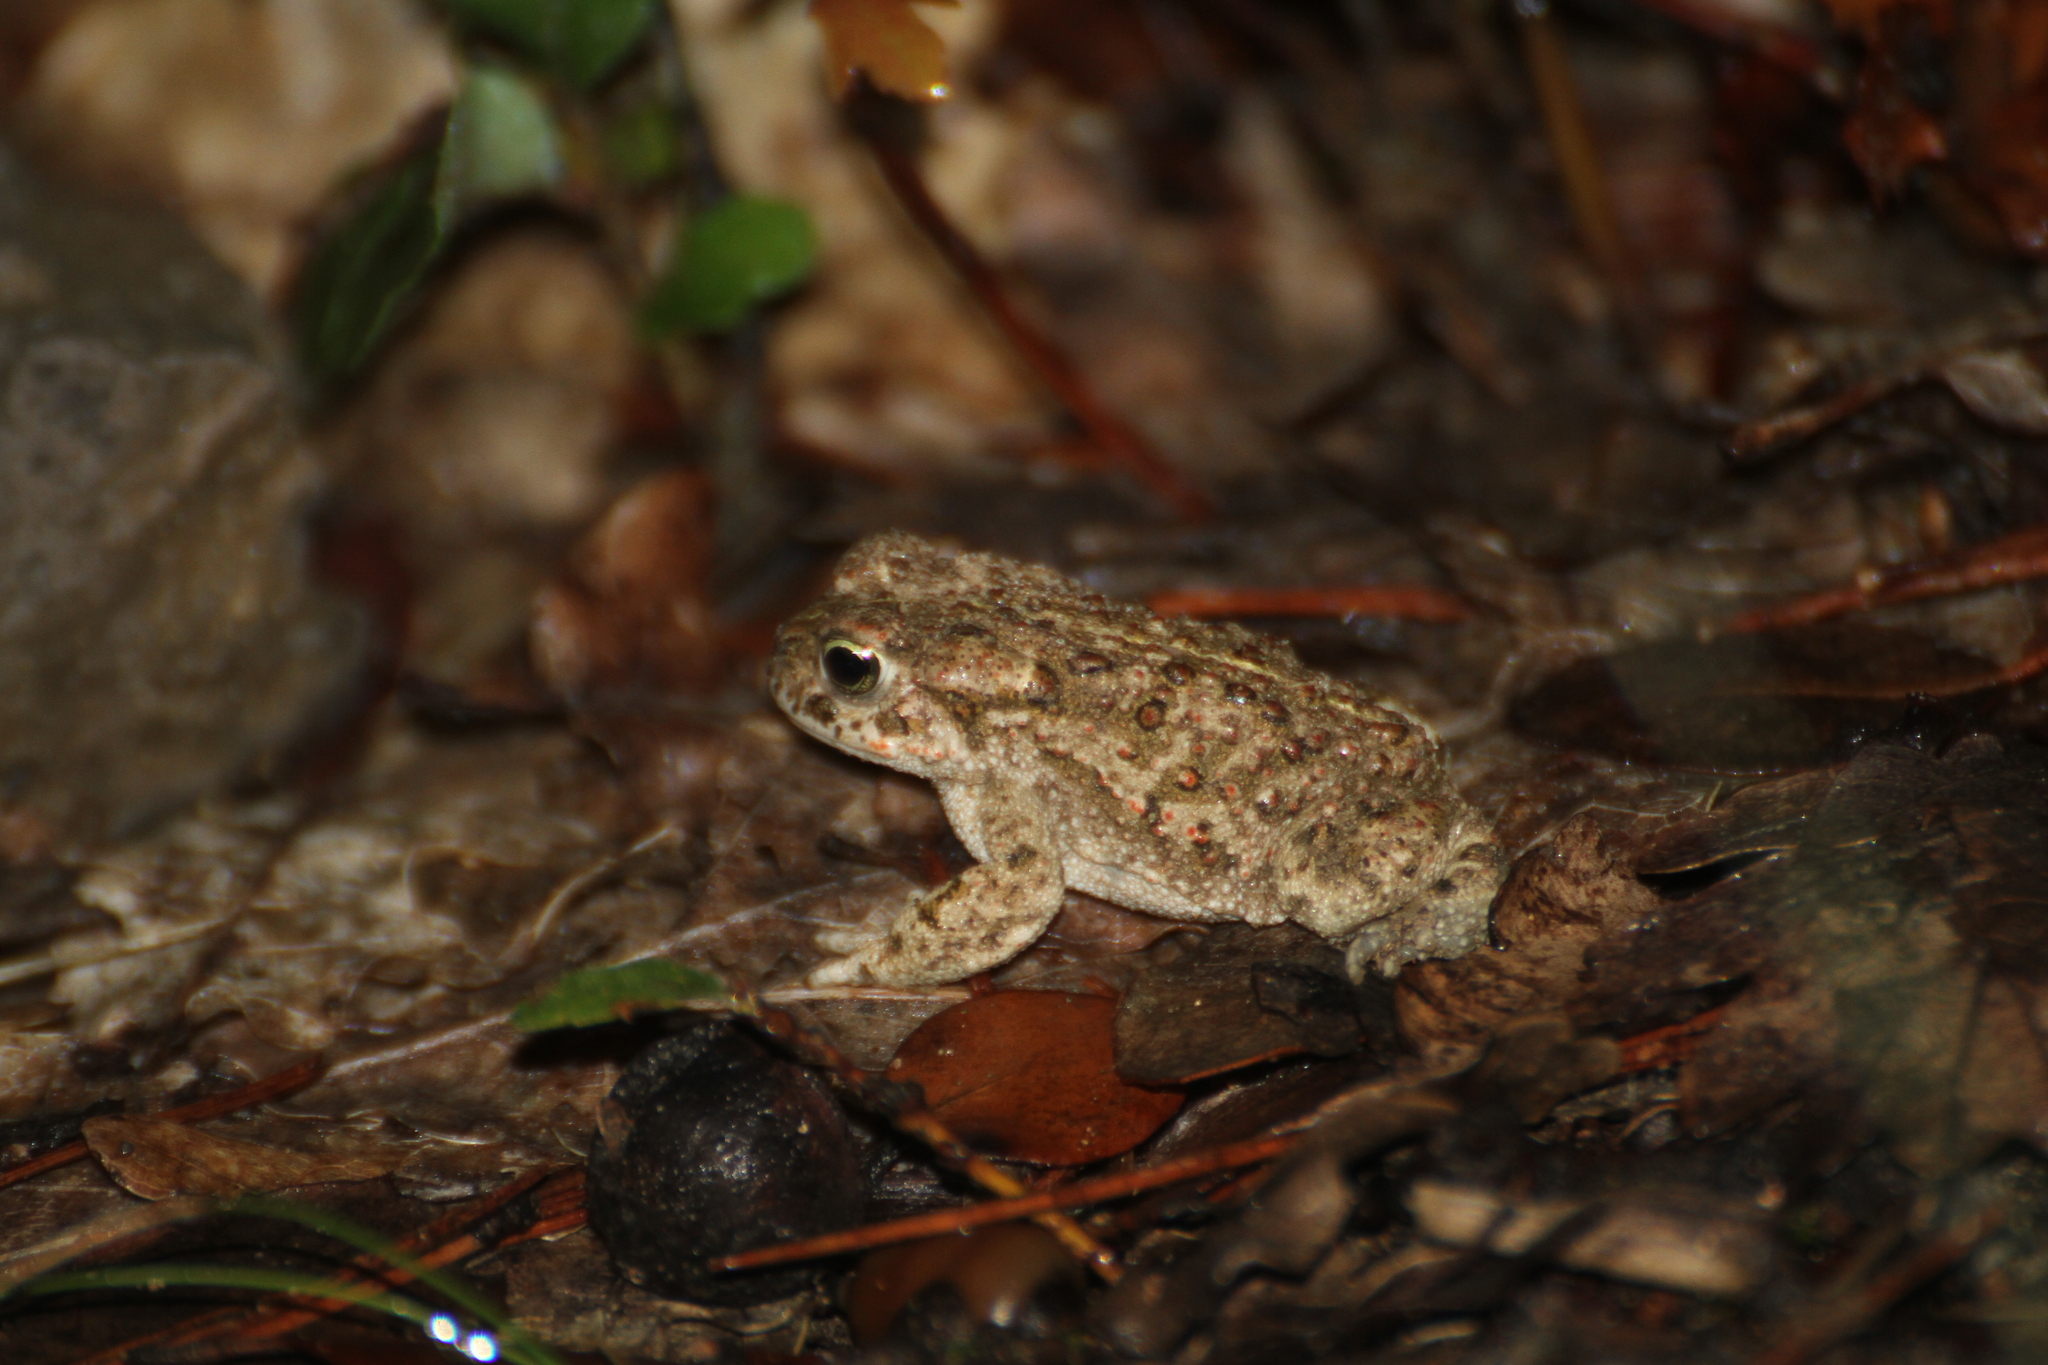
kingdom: Animalia
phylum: Chordata
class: Amphibia
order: Anura
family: Bufonidae
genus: Epidalea
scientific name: Epidalea calamita
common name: Natterjack toad
